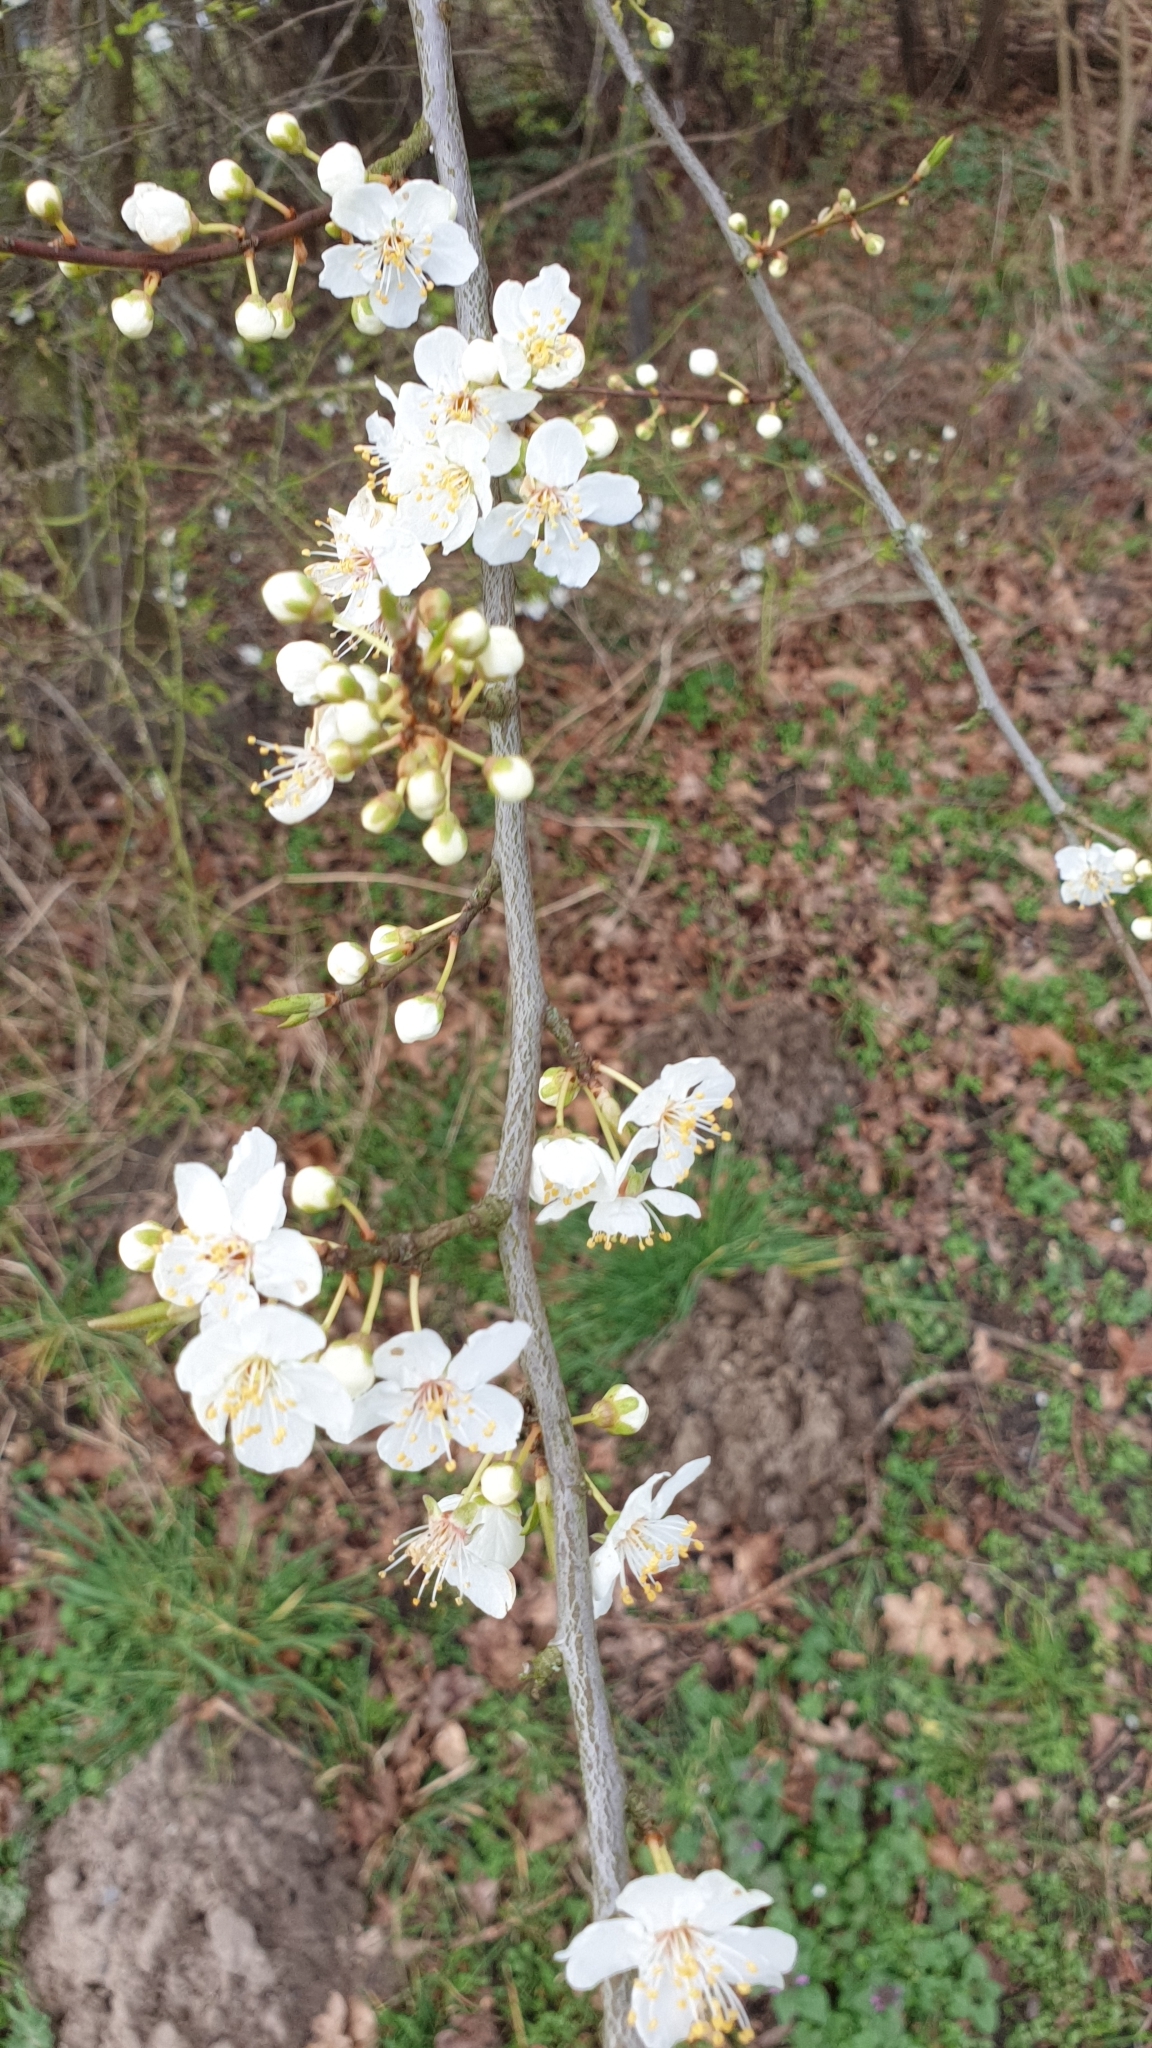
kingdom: Plantae
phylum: Tracheophyta
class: Magnoliopsida
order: Rosales
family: Rosaceae
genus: Prunus
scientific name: Prunus cerasifera
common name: Cherry plum
